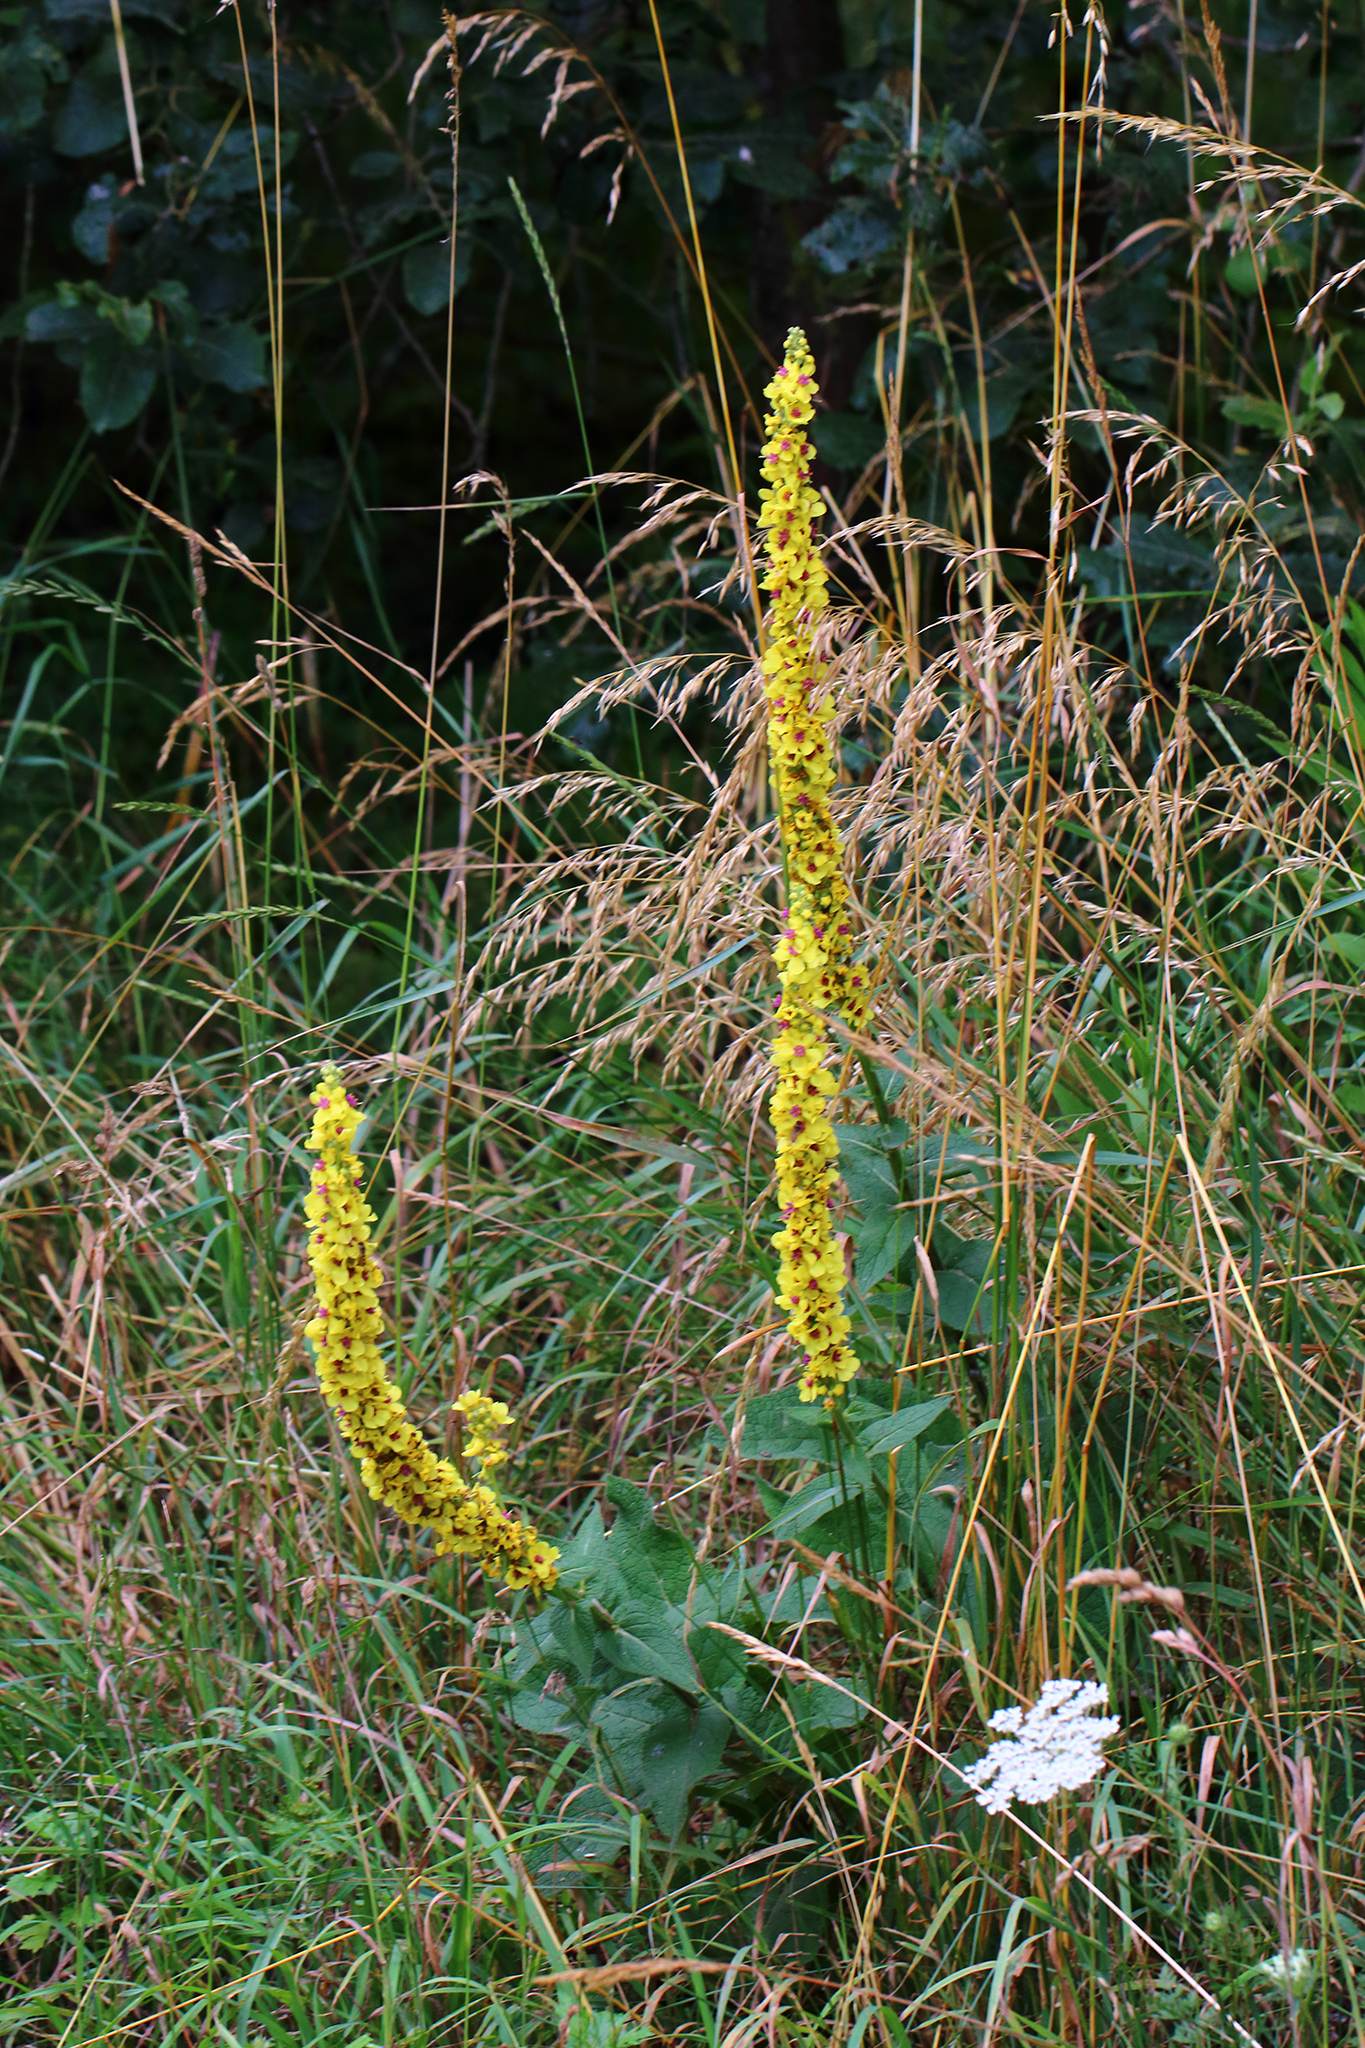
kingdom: Plantae
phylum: Tracheophyta
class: Magnoliopsida
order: Lamiales
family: Scrophulariaceae
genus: Verbascum
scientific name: Verbascum nigrum
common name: Dark mullein
